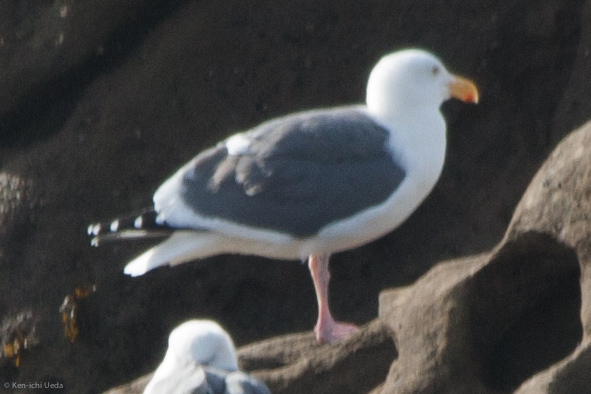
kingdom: Animalia
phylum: Chordata
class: Aves
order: Charadriiformes
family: Laridae
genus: Larus
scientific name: Larus occidentalis
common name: Western gull
